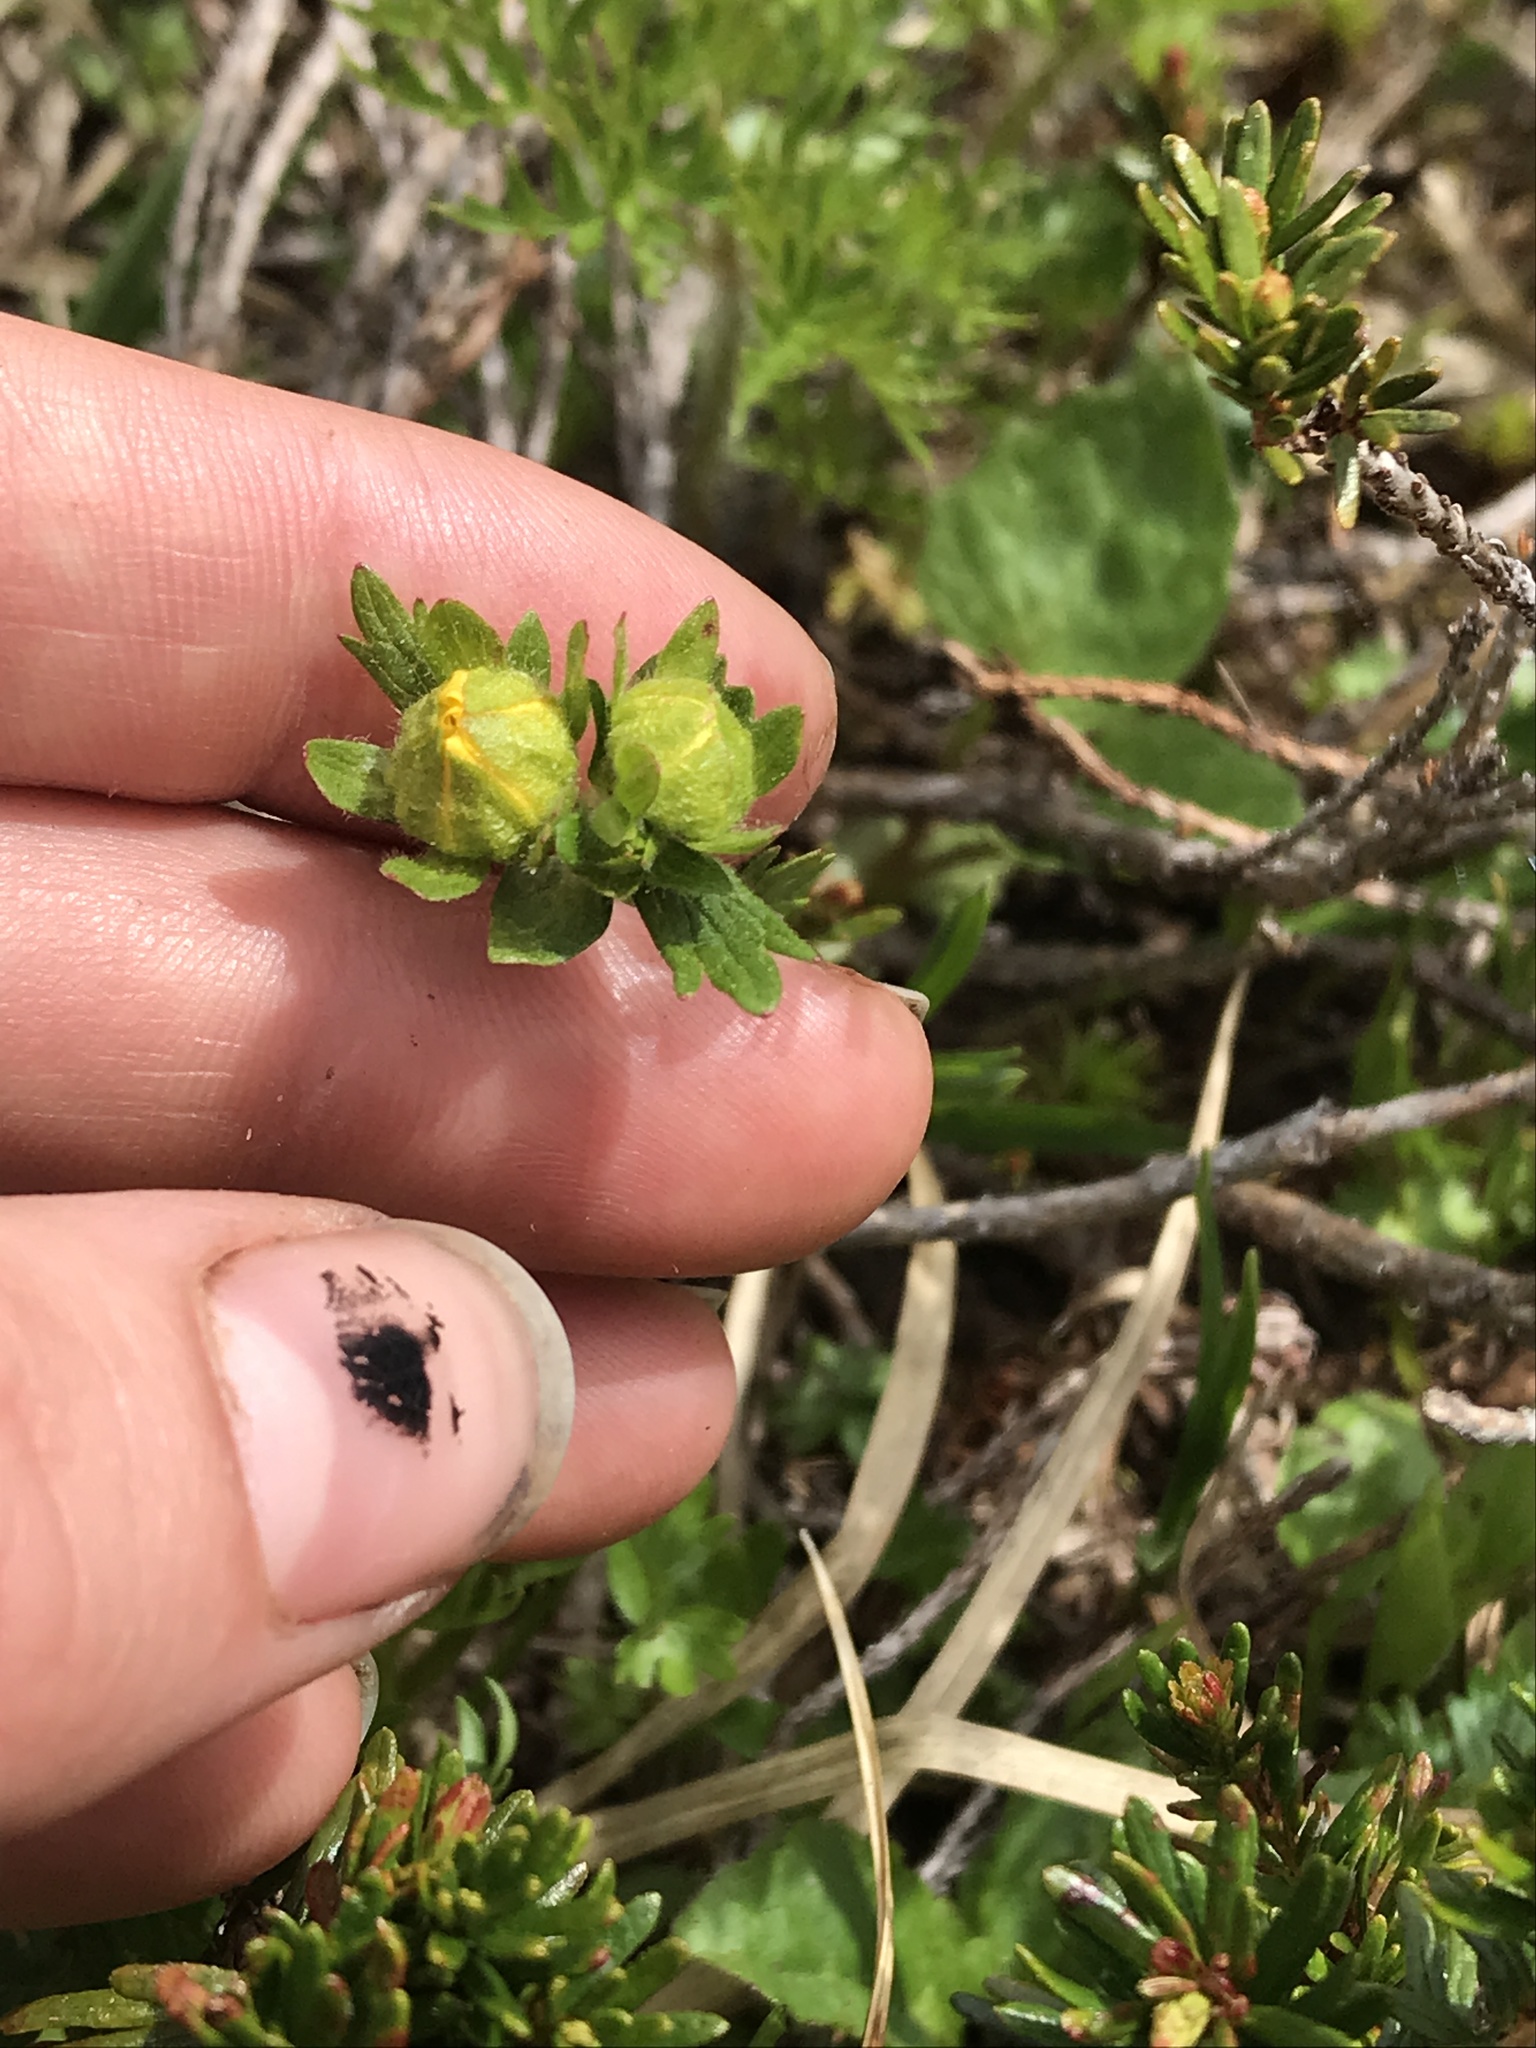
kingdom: Plantae
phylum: Tracheophyta
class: Magnoliopsida
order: Rosales
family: Rosaceae
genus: Potentilla
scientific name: Potentilla flabellifolia
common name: Mount rainier cinquefoil
